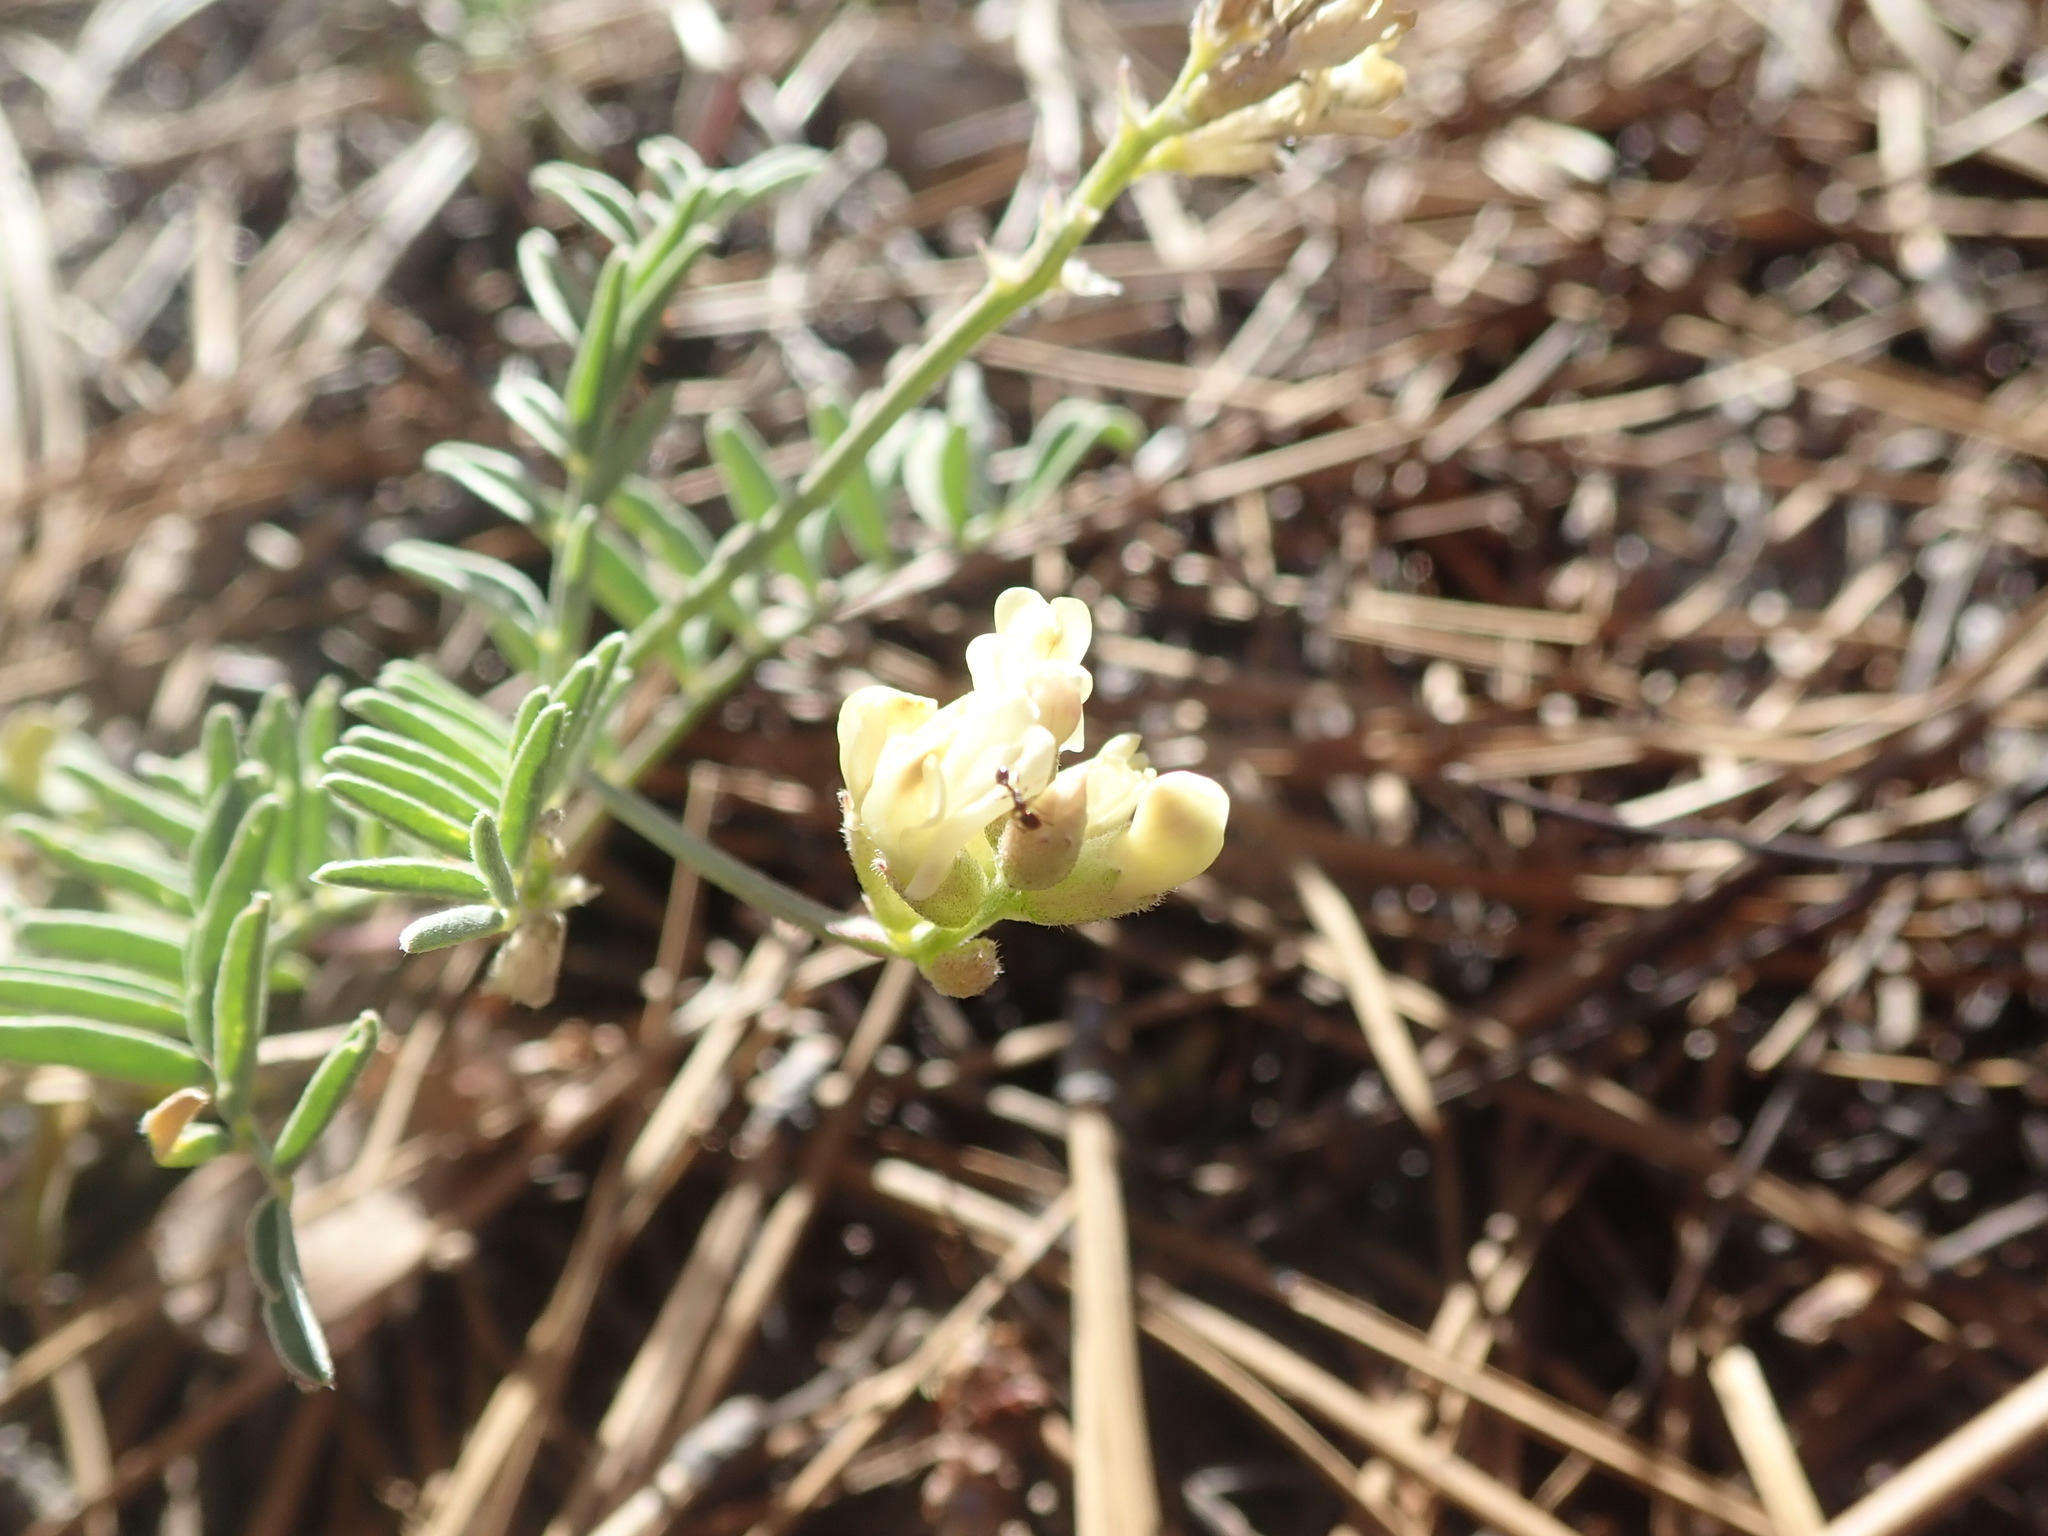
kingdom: Plantae
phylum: Tracheophyta
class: Magnoliopsida
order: Fabales
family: Fabaceae
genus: Astragalus
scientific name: Astragalus whitneyi
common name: Balloonpod milkvetch
